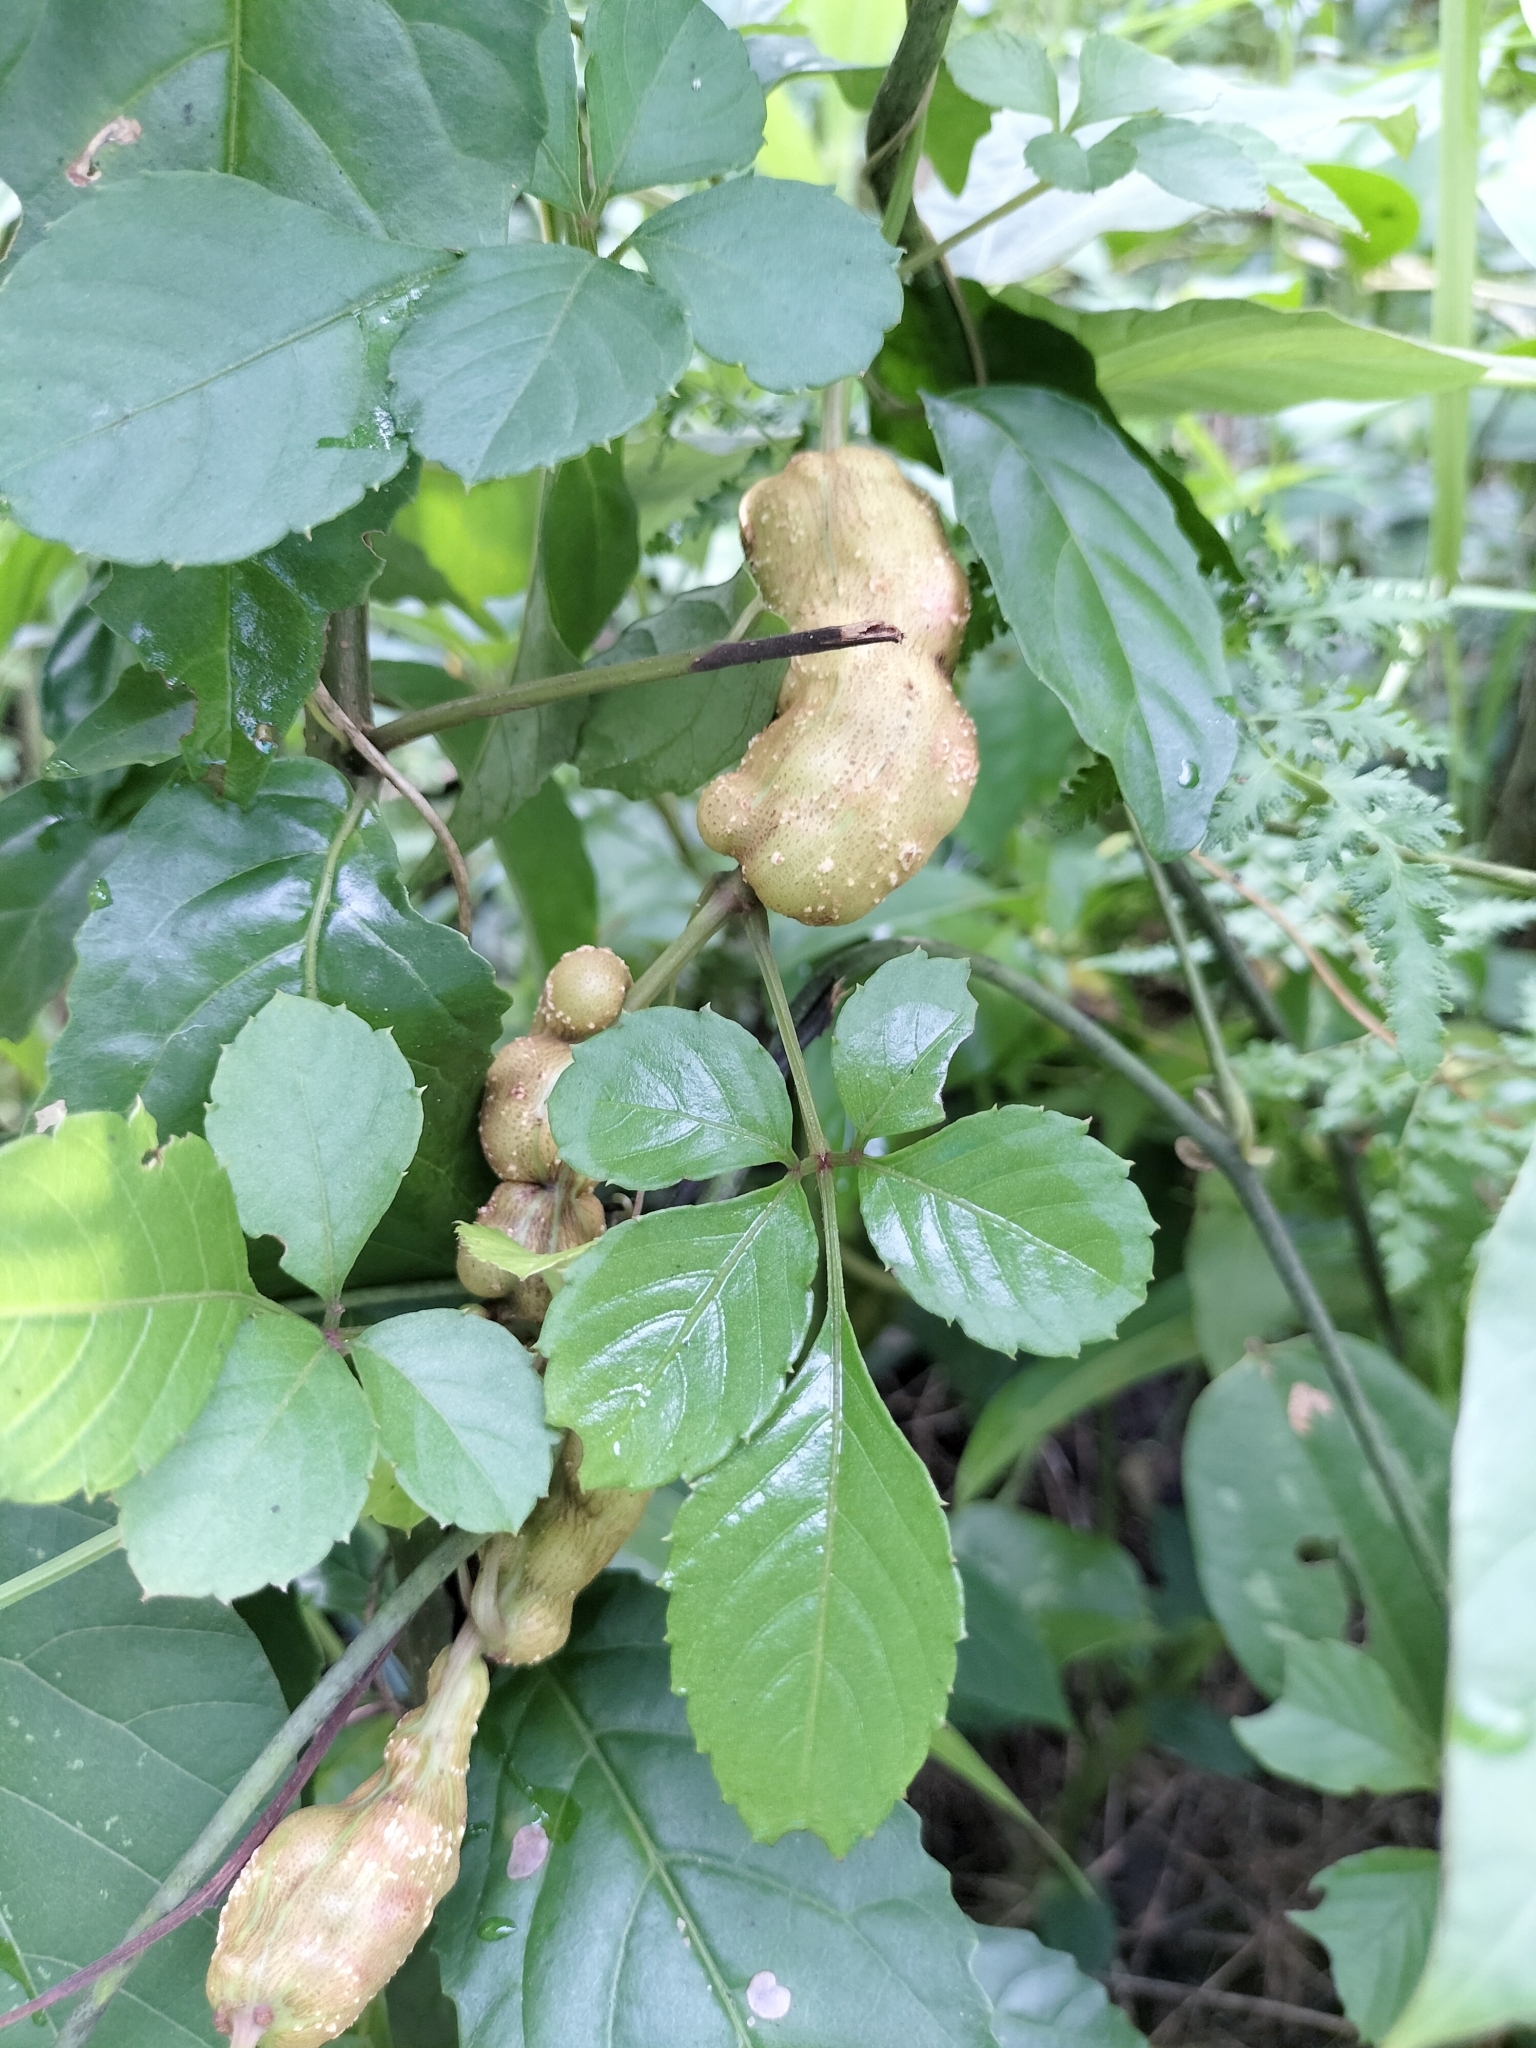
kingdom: Plantae
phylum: Tracheophyta
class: Magnoliopsida
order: Vitales
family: Vitaceae
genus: Causonis
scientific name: Causonis corniculata
